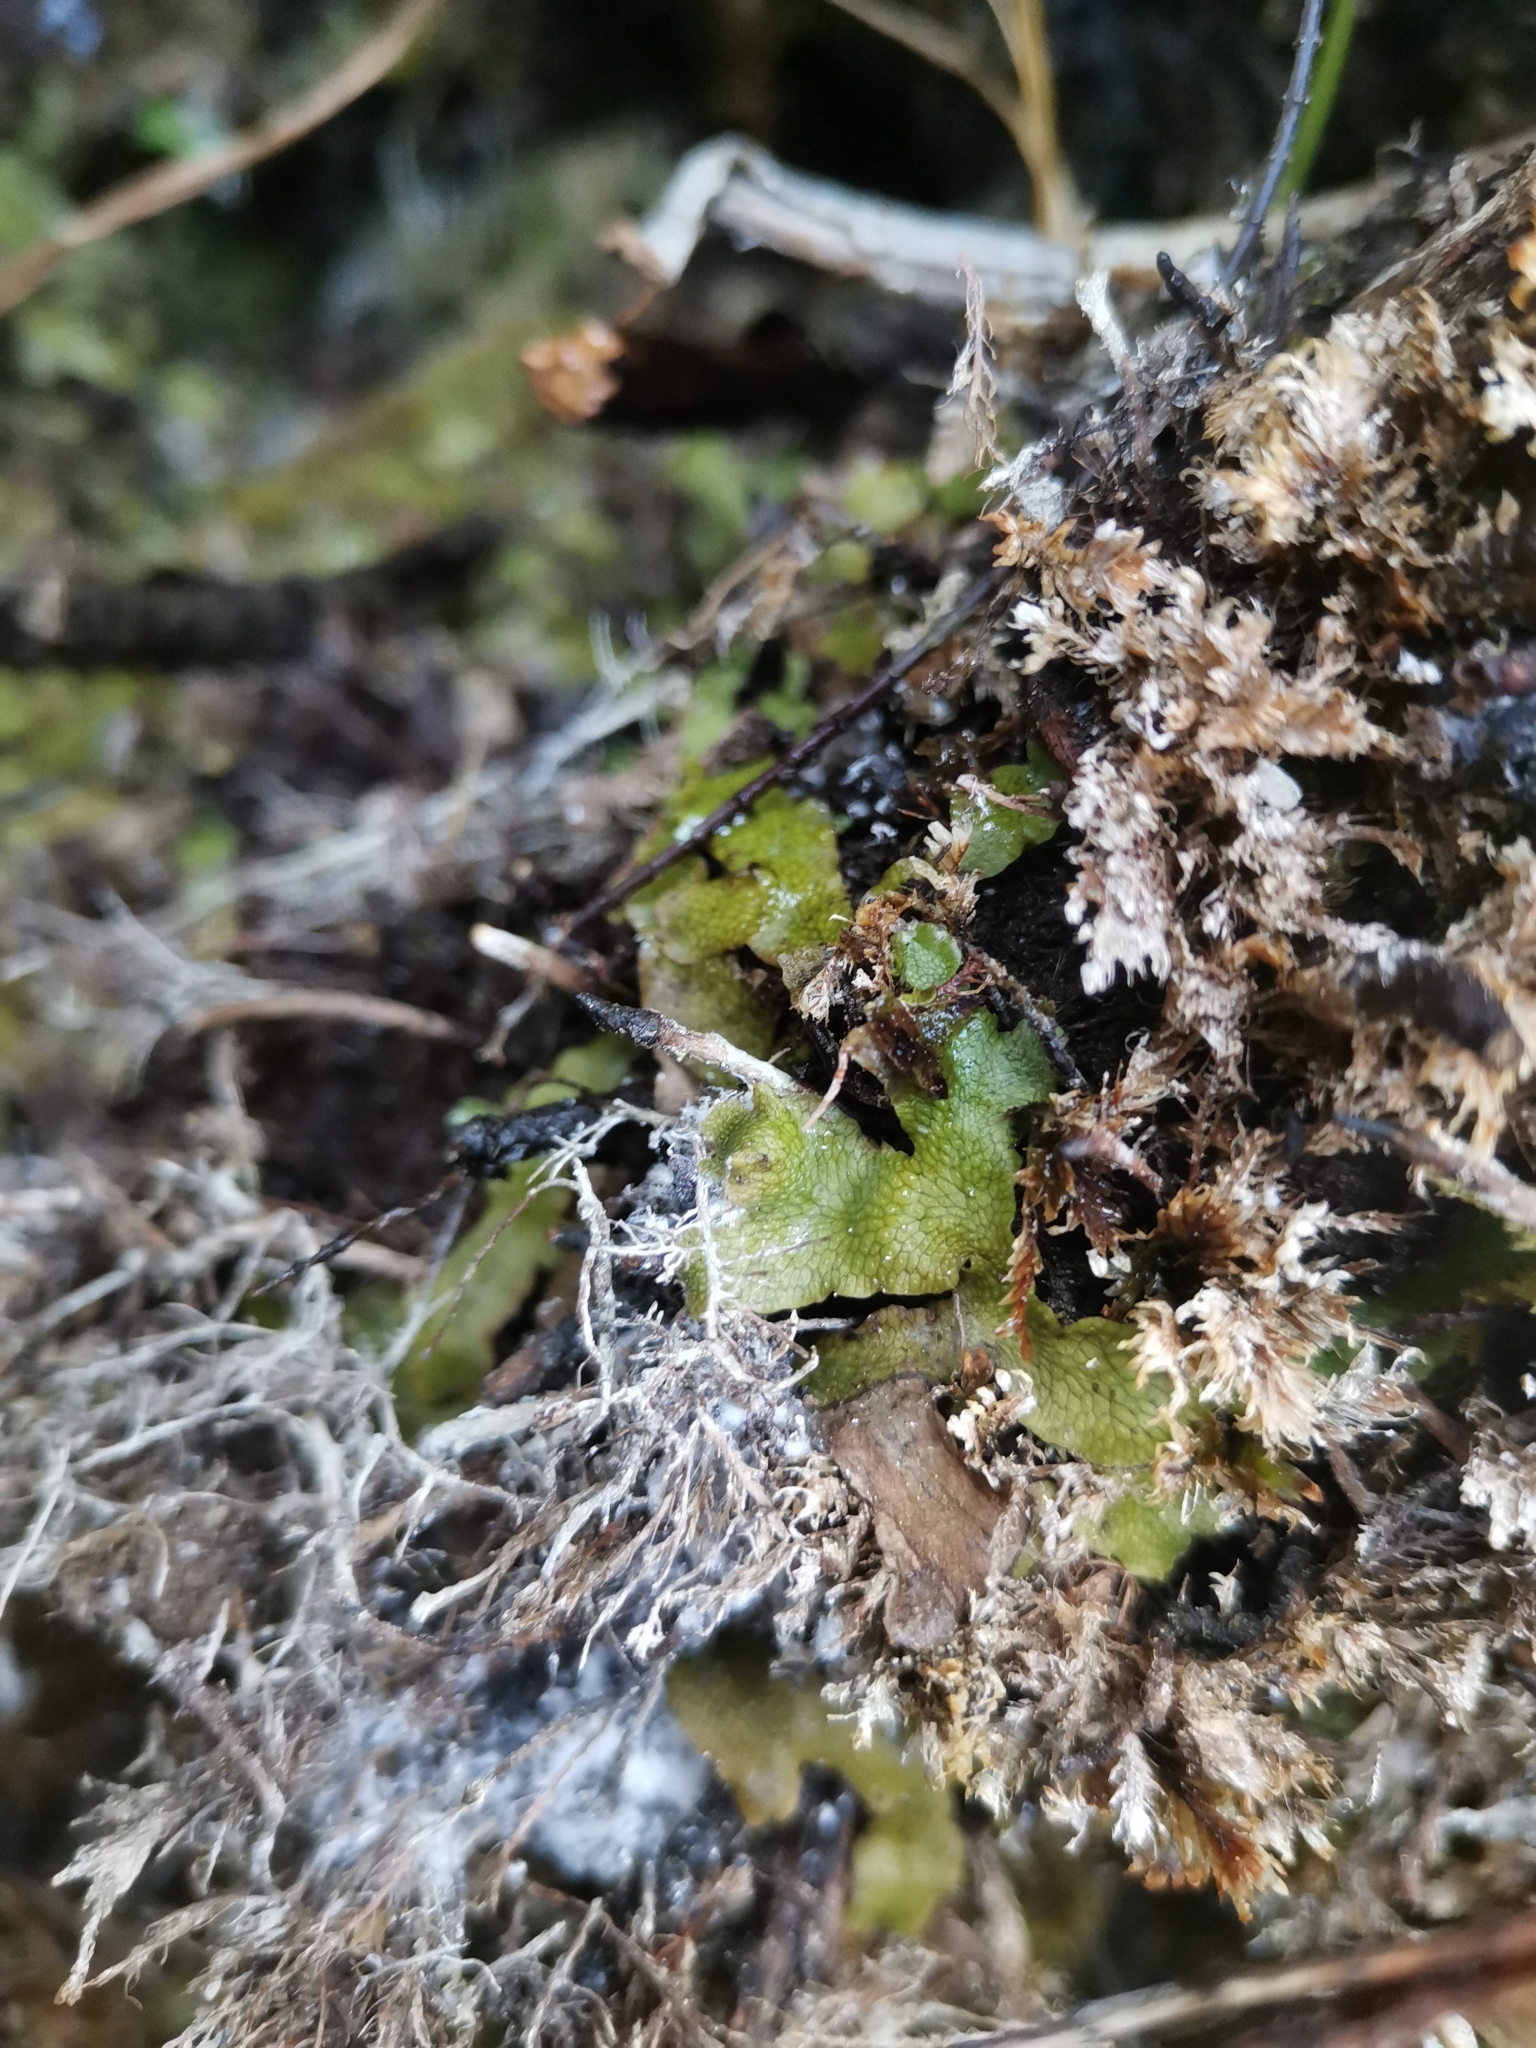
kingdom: Plantae
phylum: Marchantiophyta
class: Marchantiopsida
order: Marchantiales
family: Conocephalaceae
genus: Conocephalum
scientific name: Conocephalum salebrosum
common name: Cat-tongue liverwort
